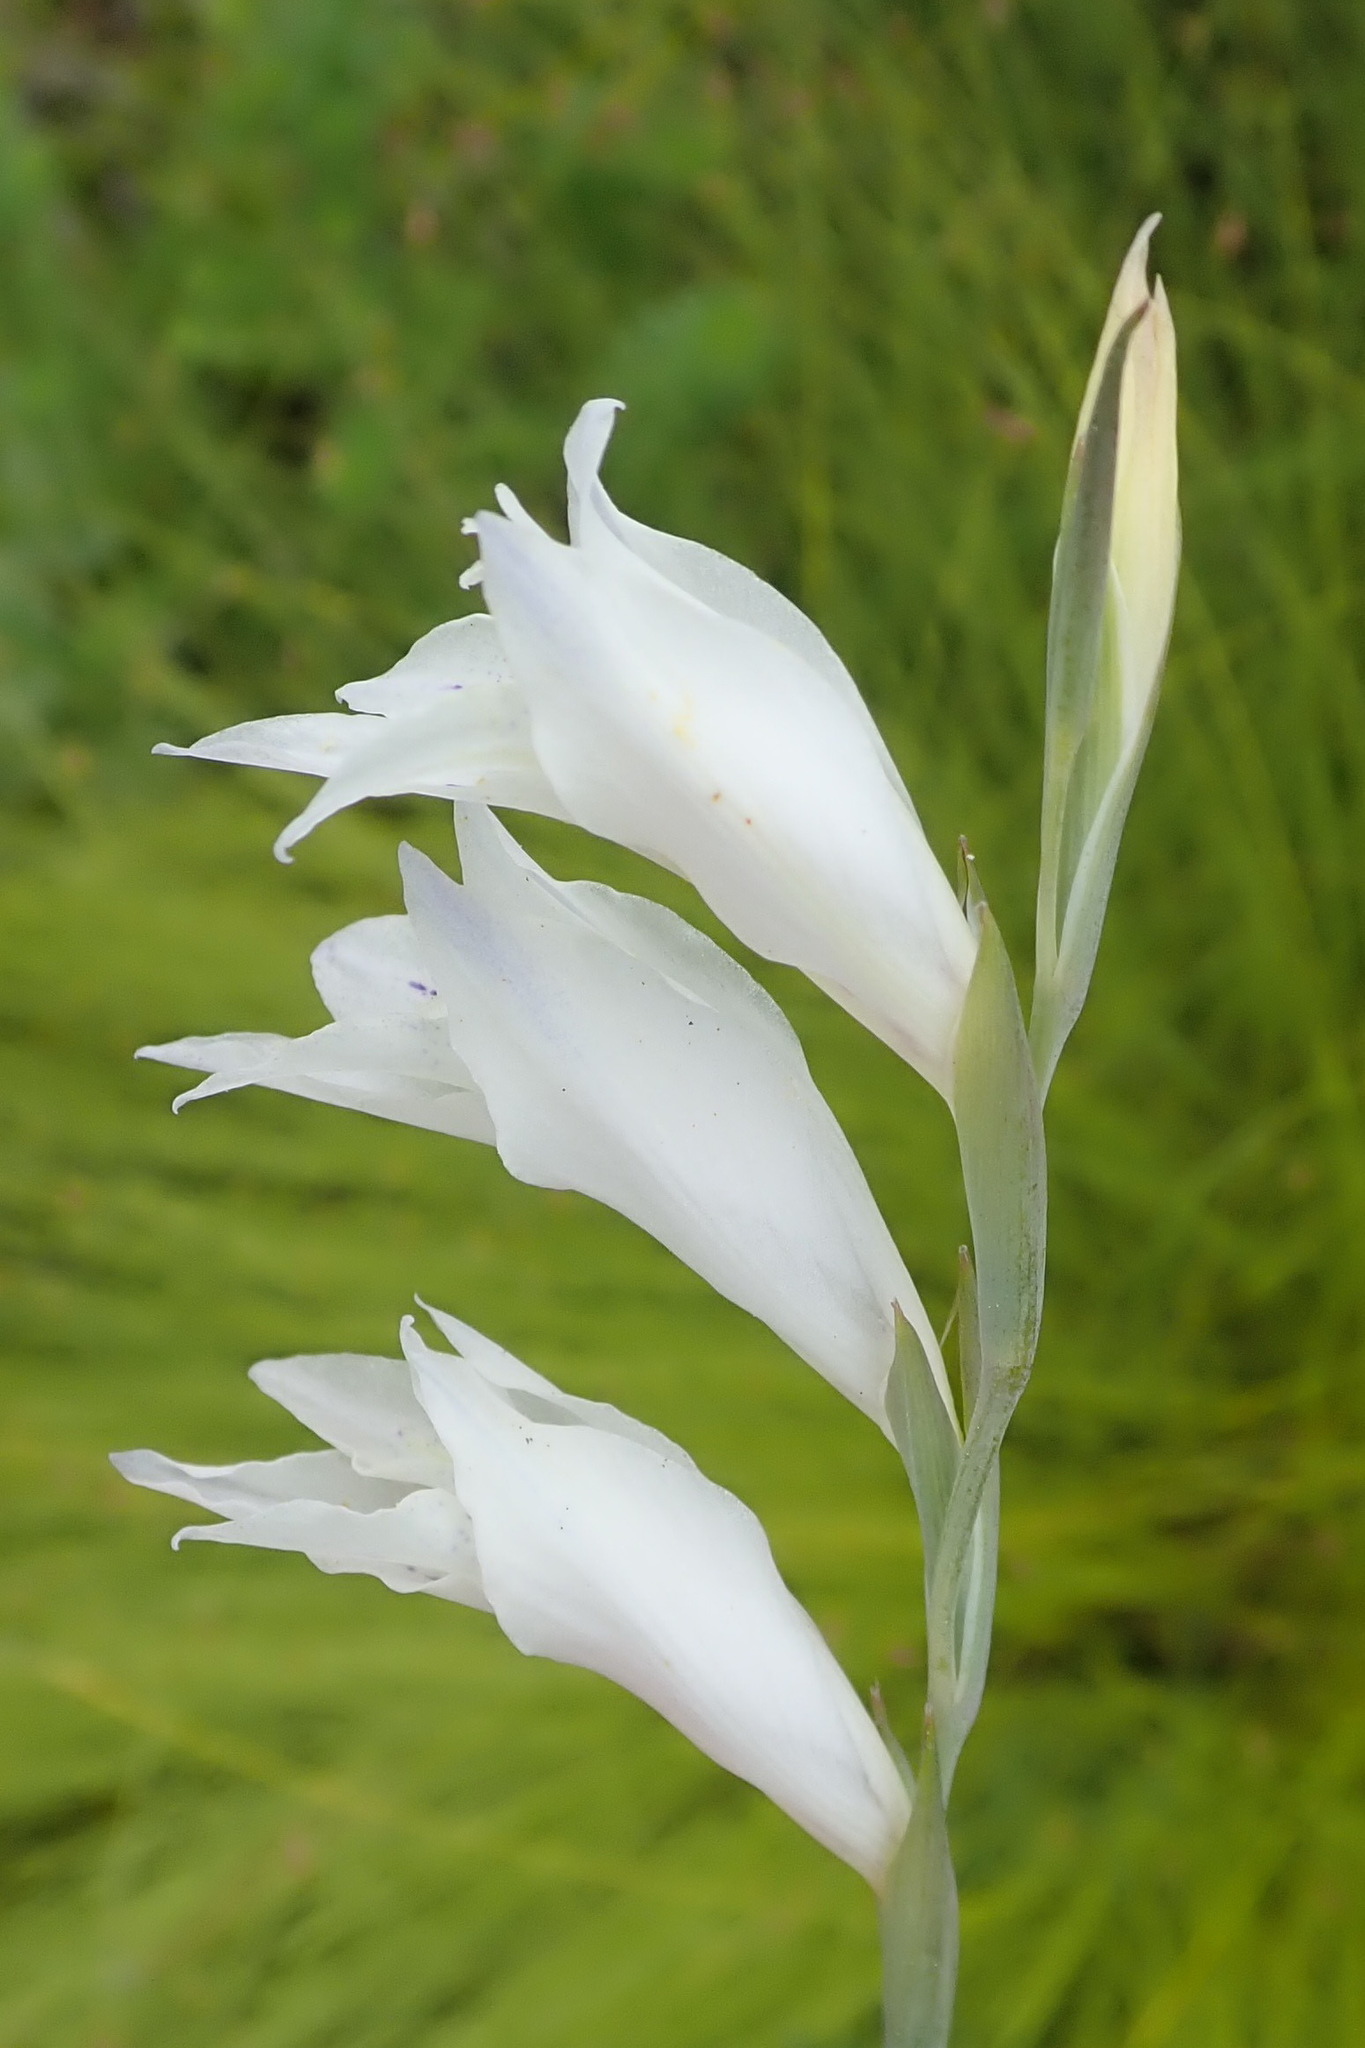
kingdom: Plantae
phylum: Tracheophyta
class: Liliopsida
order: Asparagales
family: Iridaceae
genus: Gladiolus
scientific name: Gladiolus vaginatus
